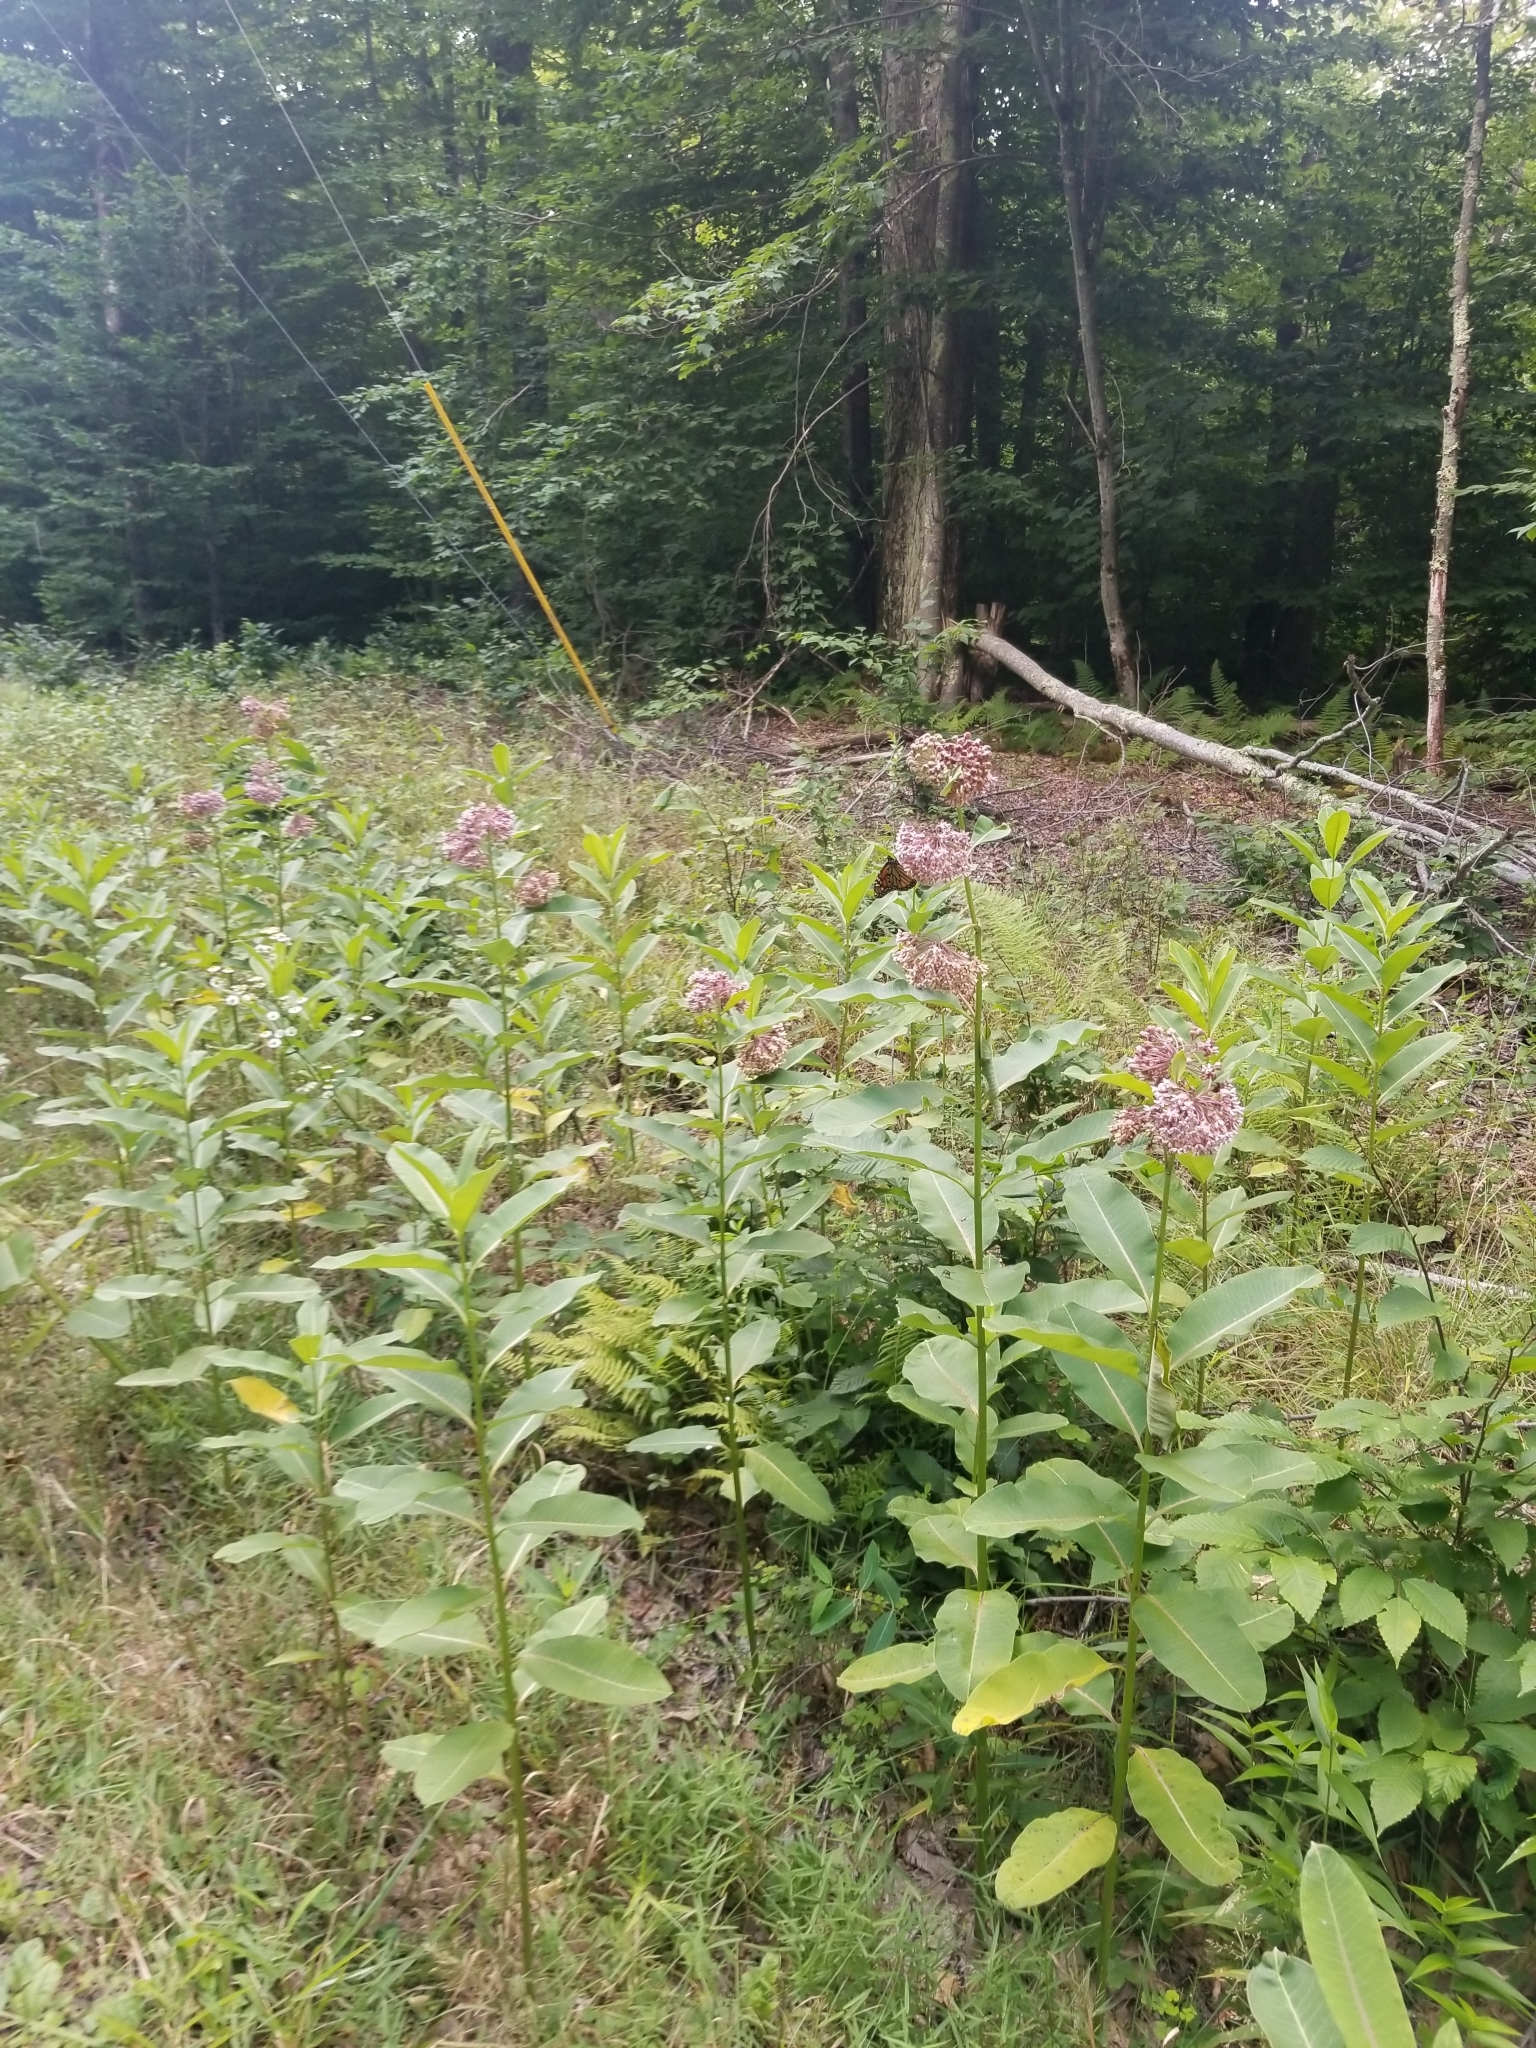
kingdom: Animalia
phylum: Arthropoda
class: Insecta
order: Lepidoptera
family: Nymphalidae
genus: Danaus
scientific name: Danaus plexippus
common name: Monarch
